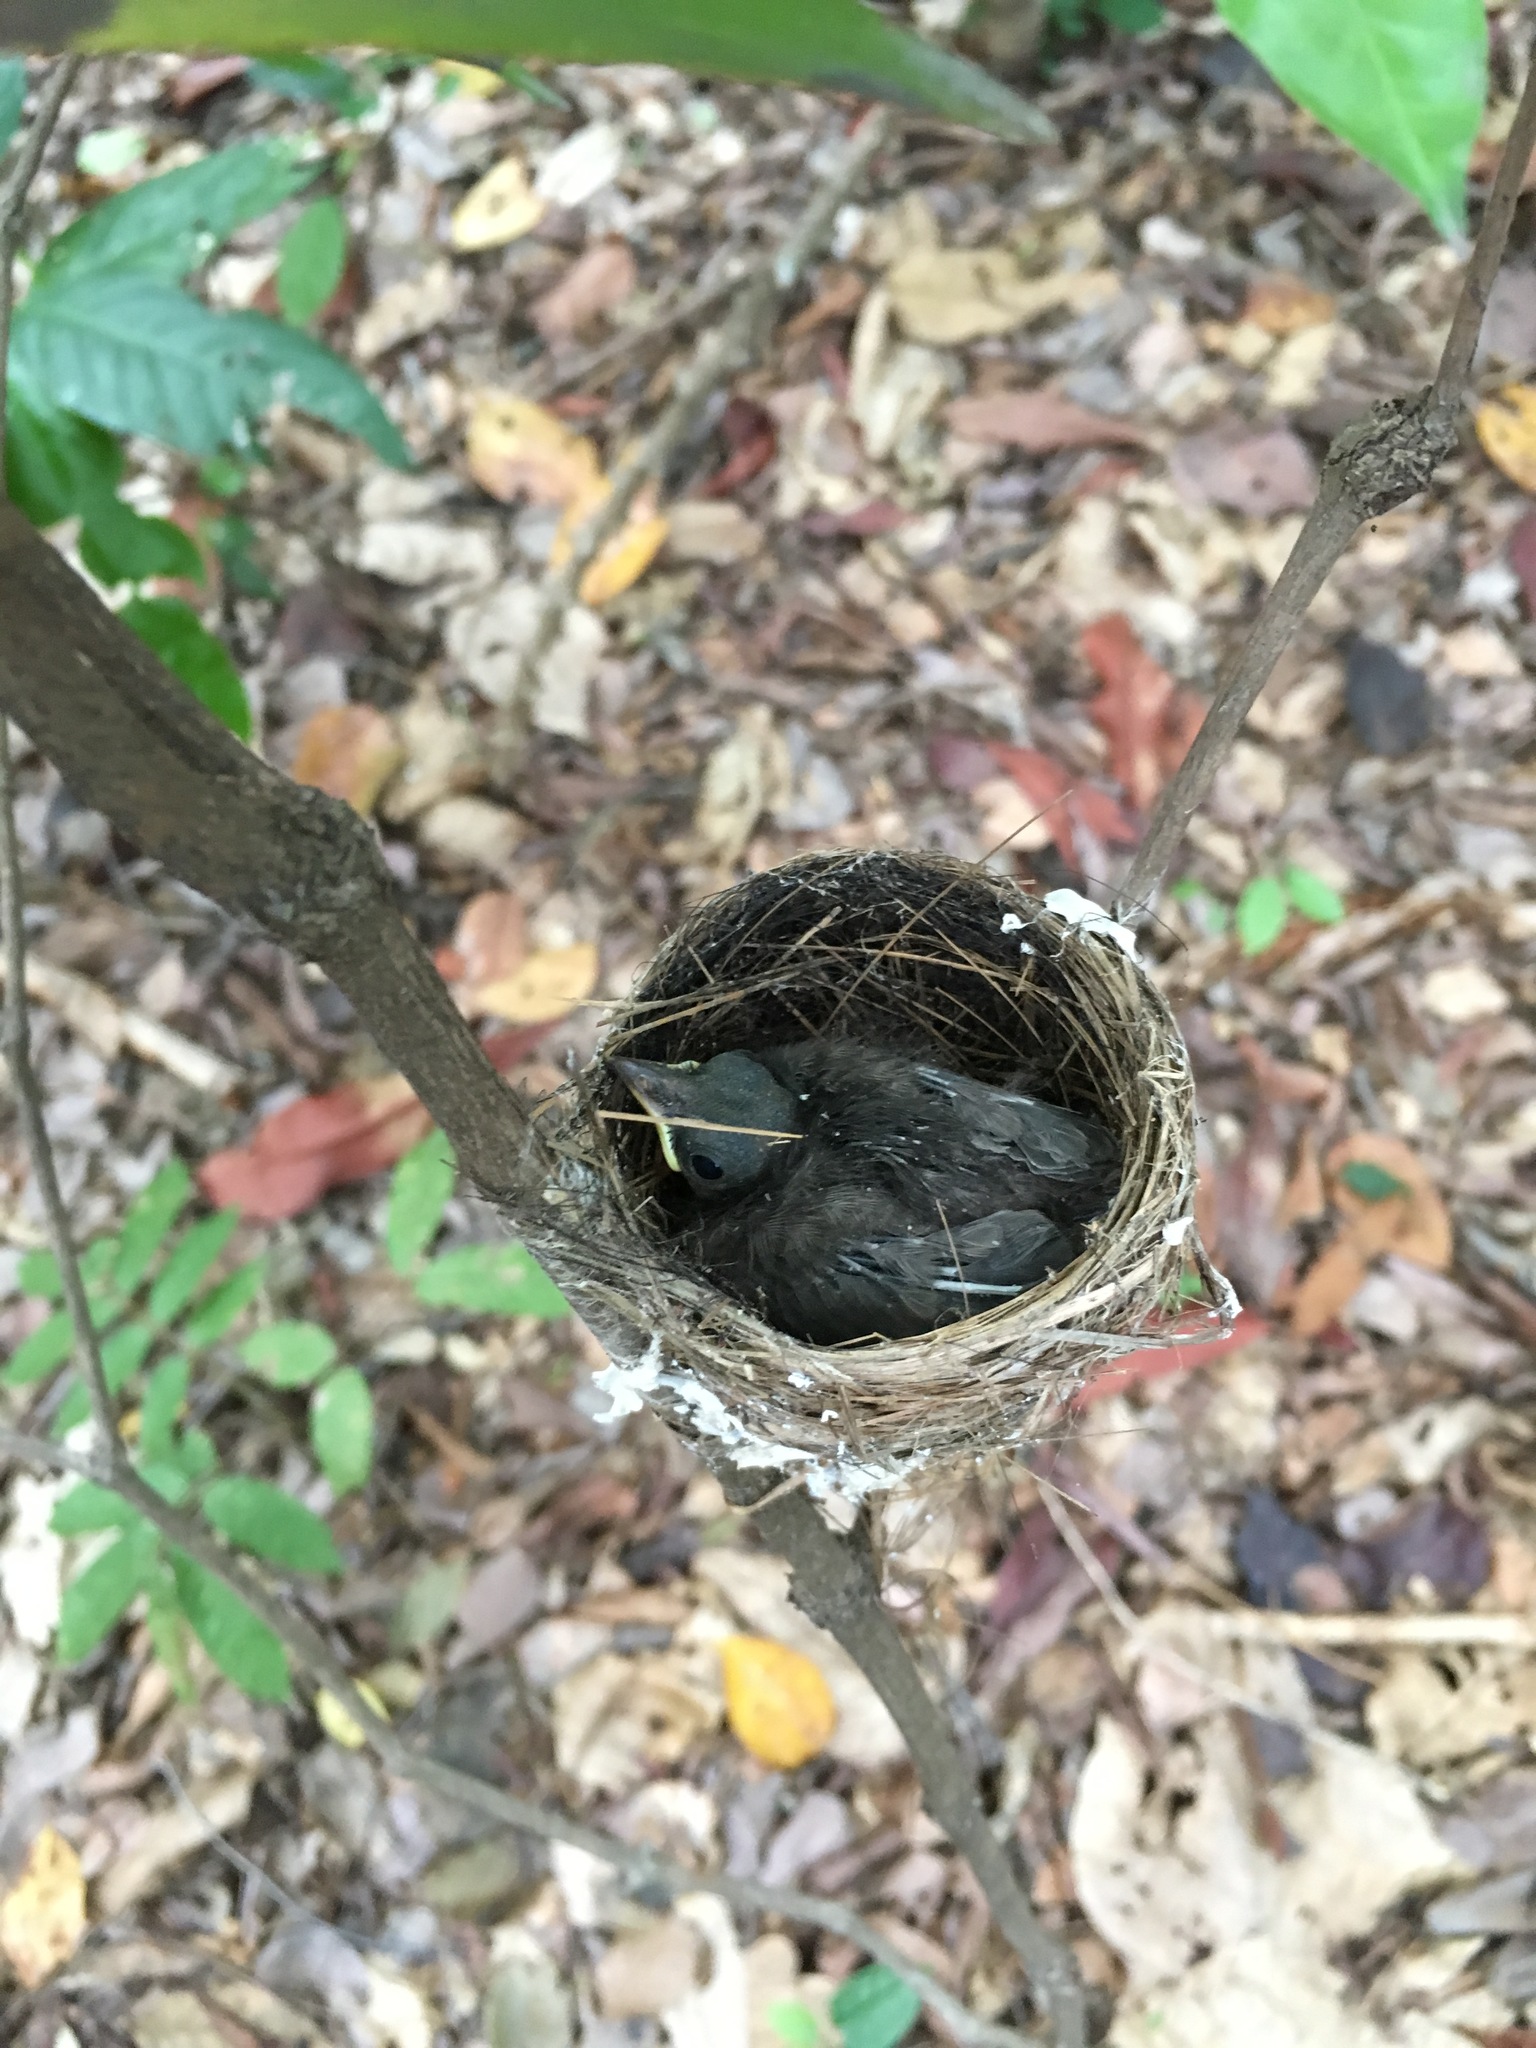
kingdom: Animalia
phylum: Chordata
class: Aves
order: Passeriformes
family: Monarchidae
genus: Hypothymis
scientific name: Hypothymis azurea
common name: Black-naped monarch
